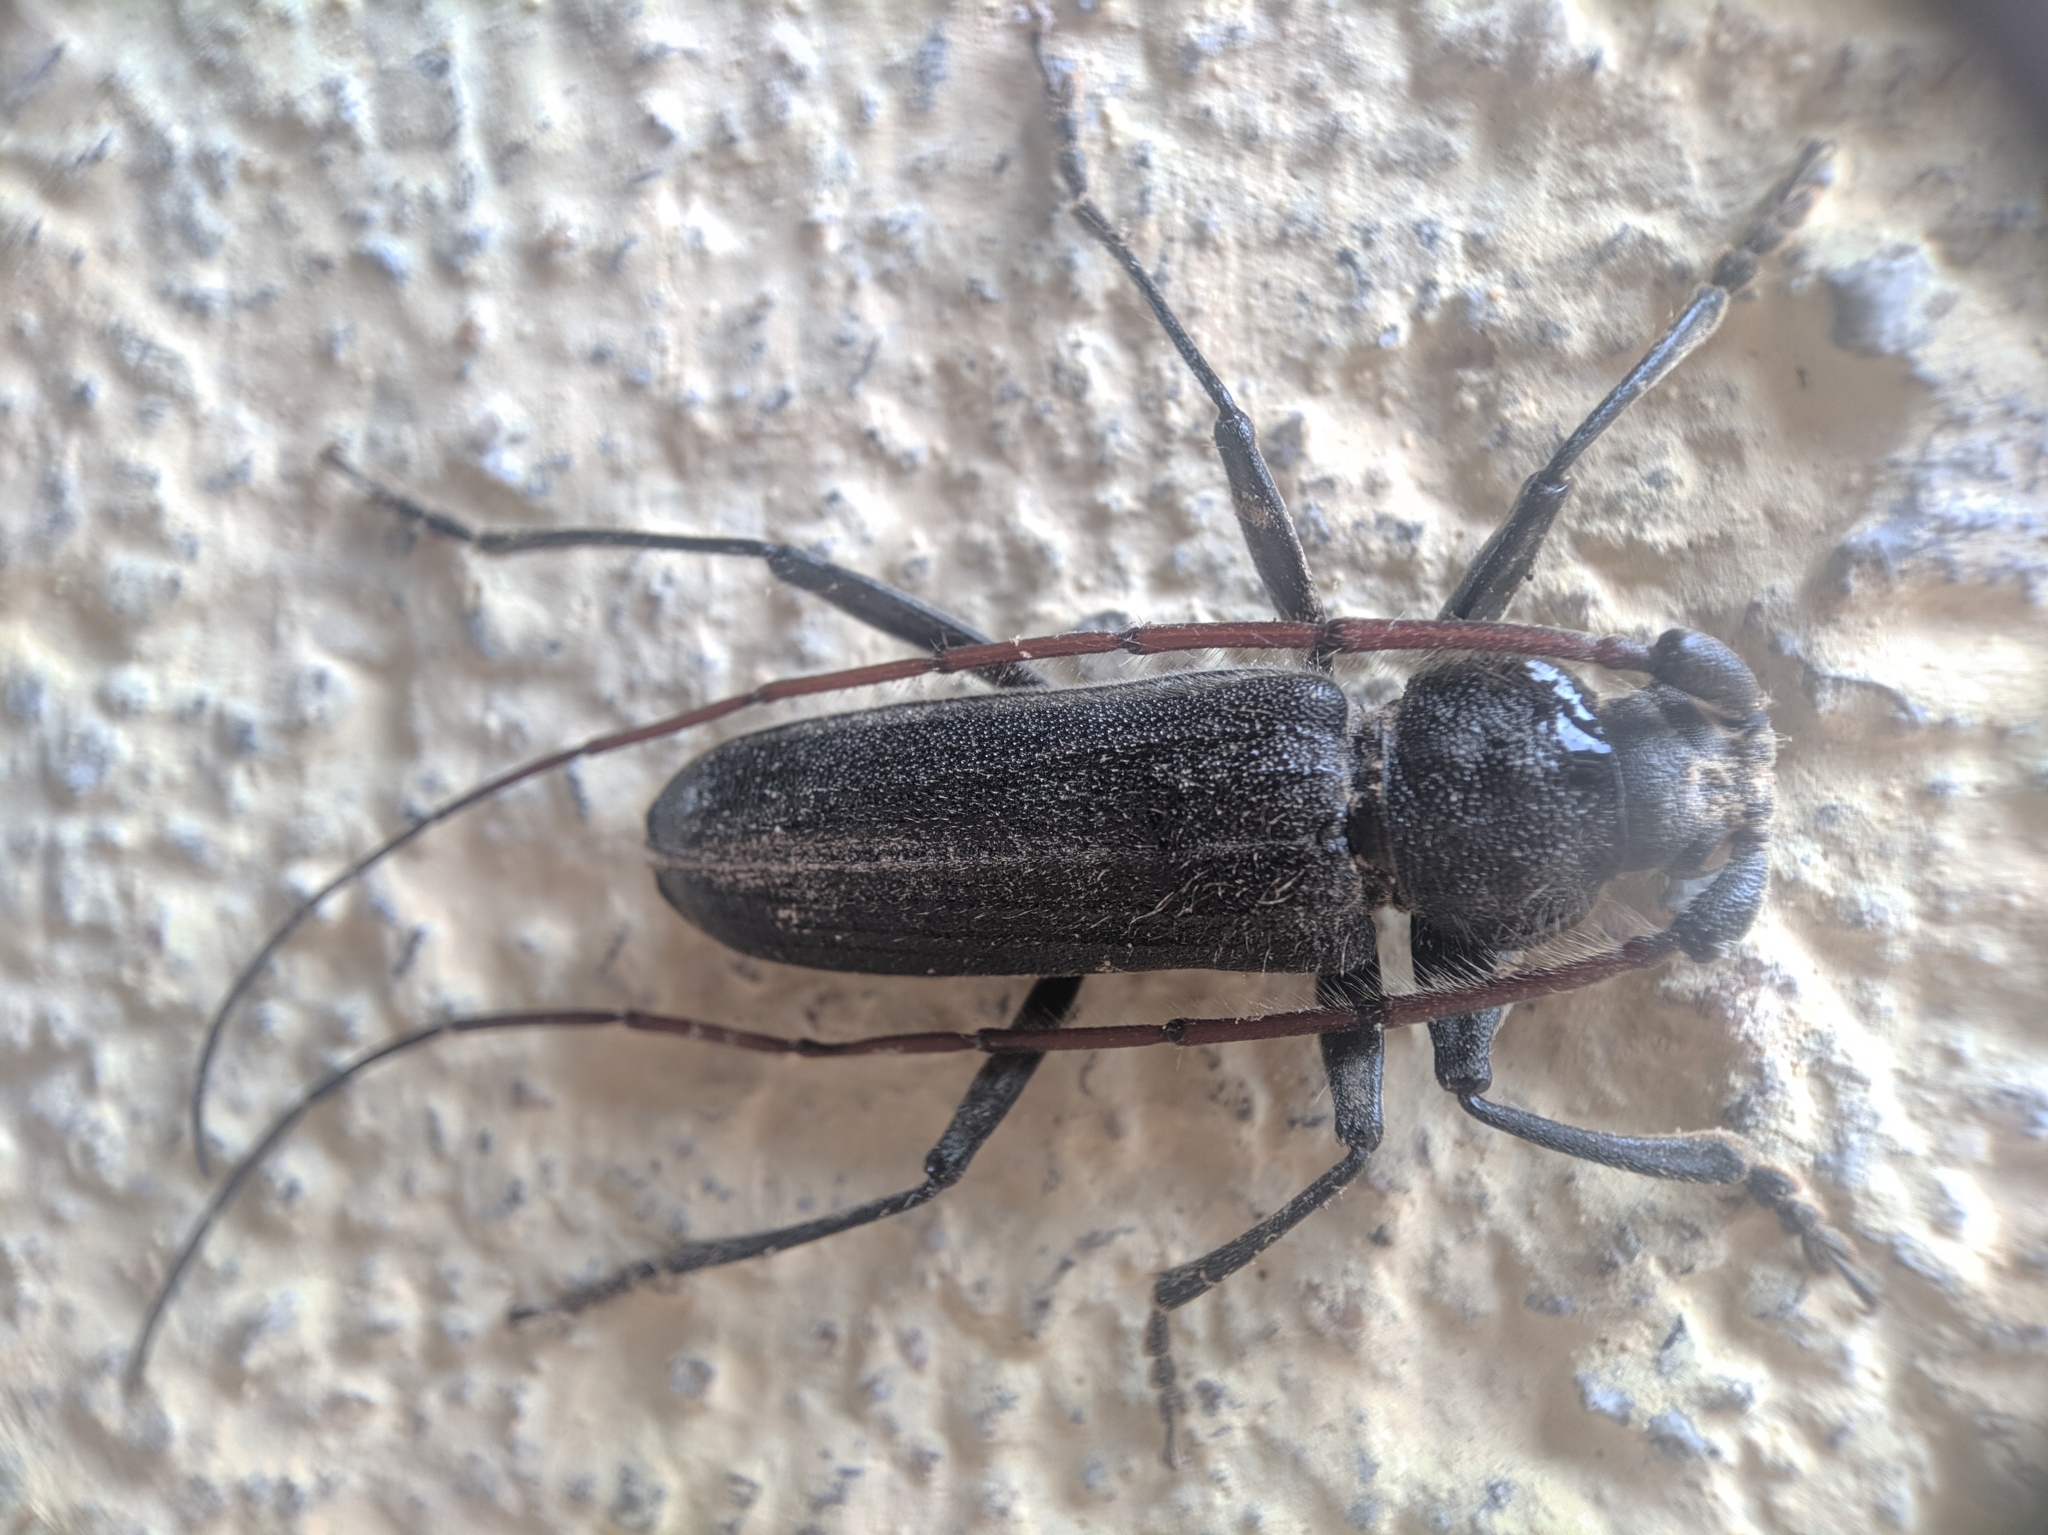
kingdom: Animalia
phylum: Arthropoda
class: Insecta
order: Coleoptera
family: Cerambycidae
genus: Stromatium
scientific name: Stromatium barbatum
